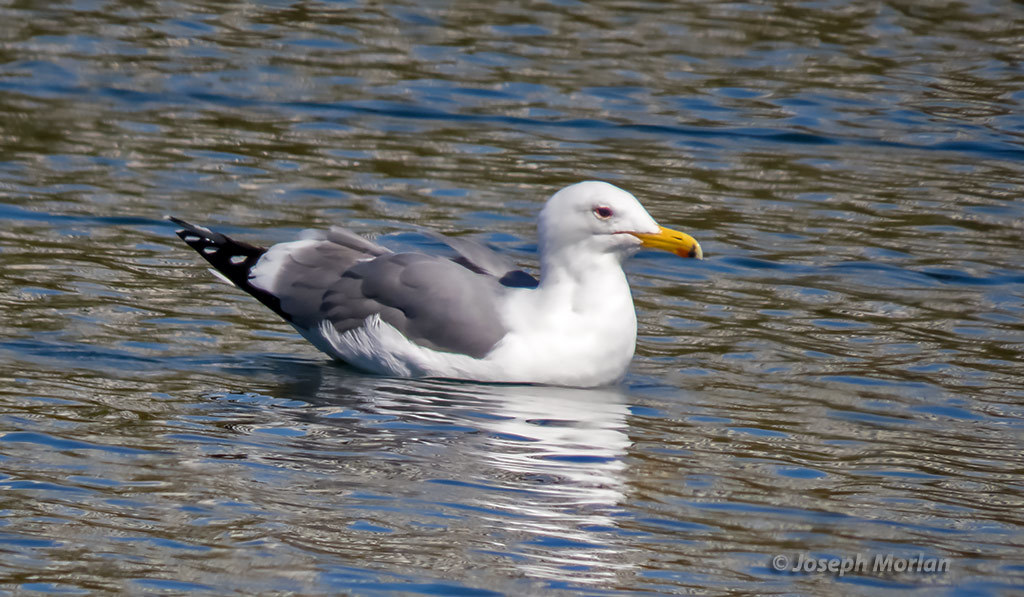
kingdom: Animalia
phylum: Chordata
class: Aves
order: Charadriiformes
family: Laridae
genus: Larus
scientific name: Larus californicus
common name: California gull
